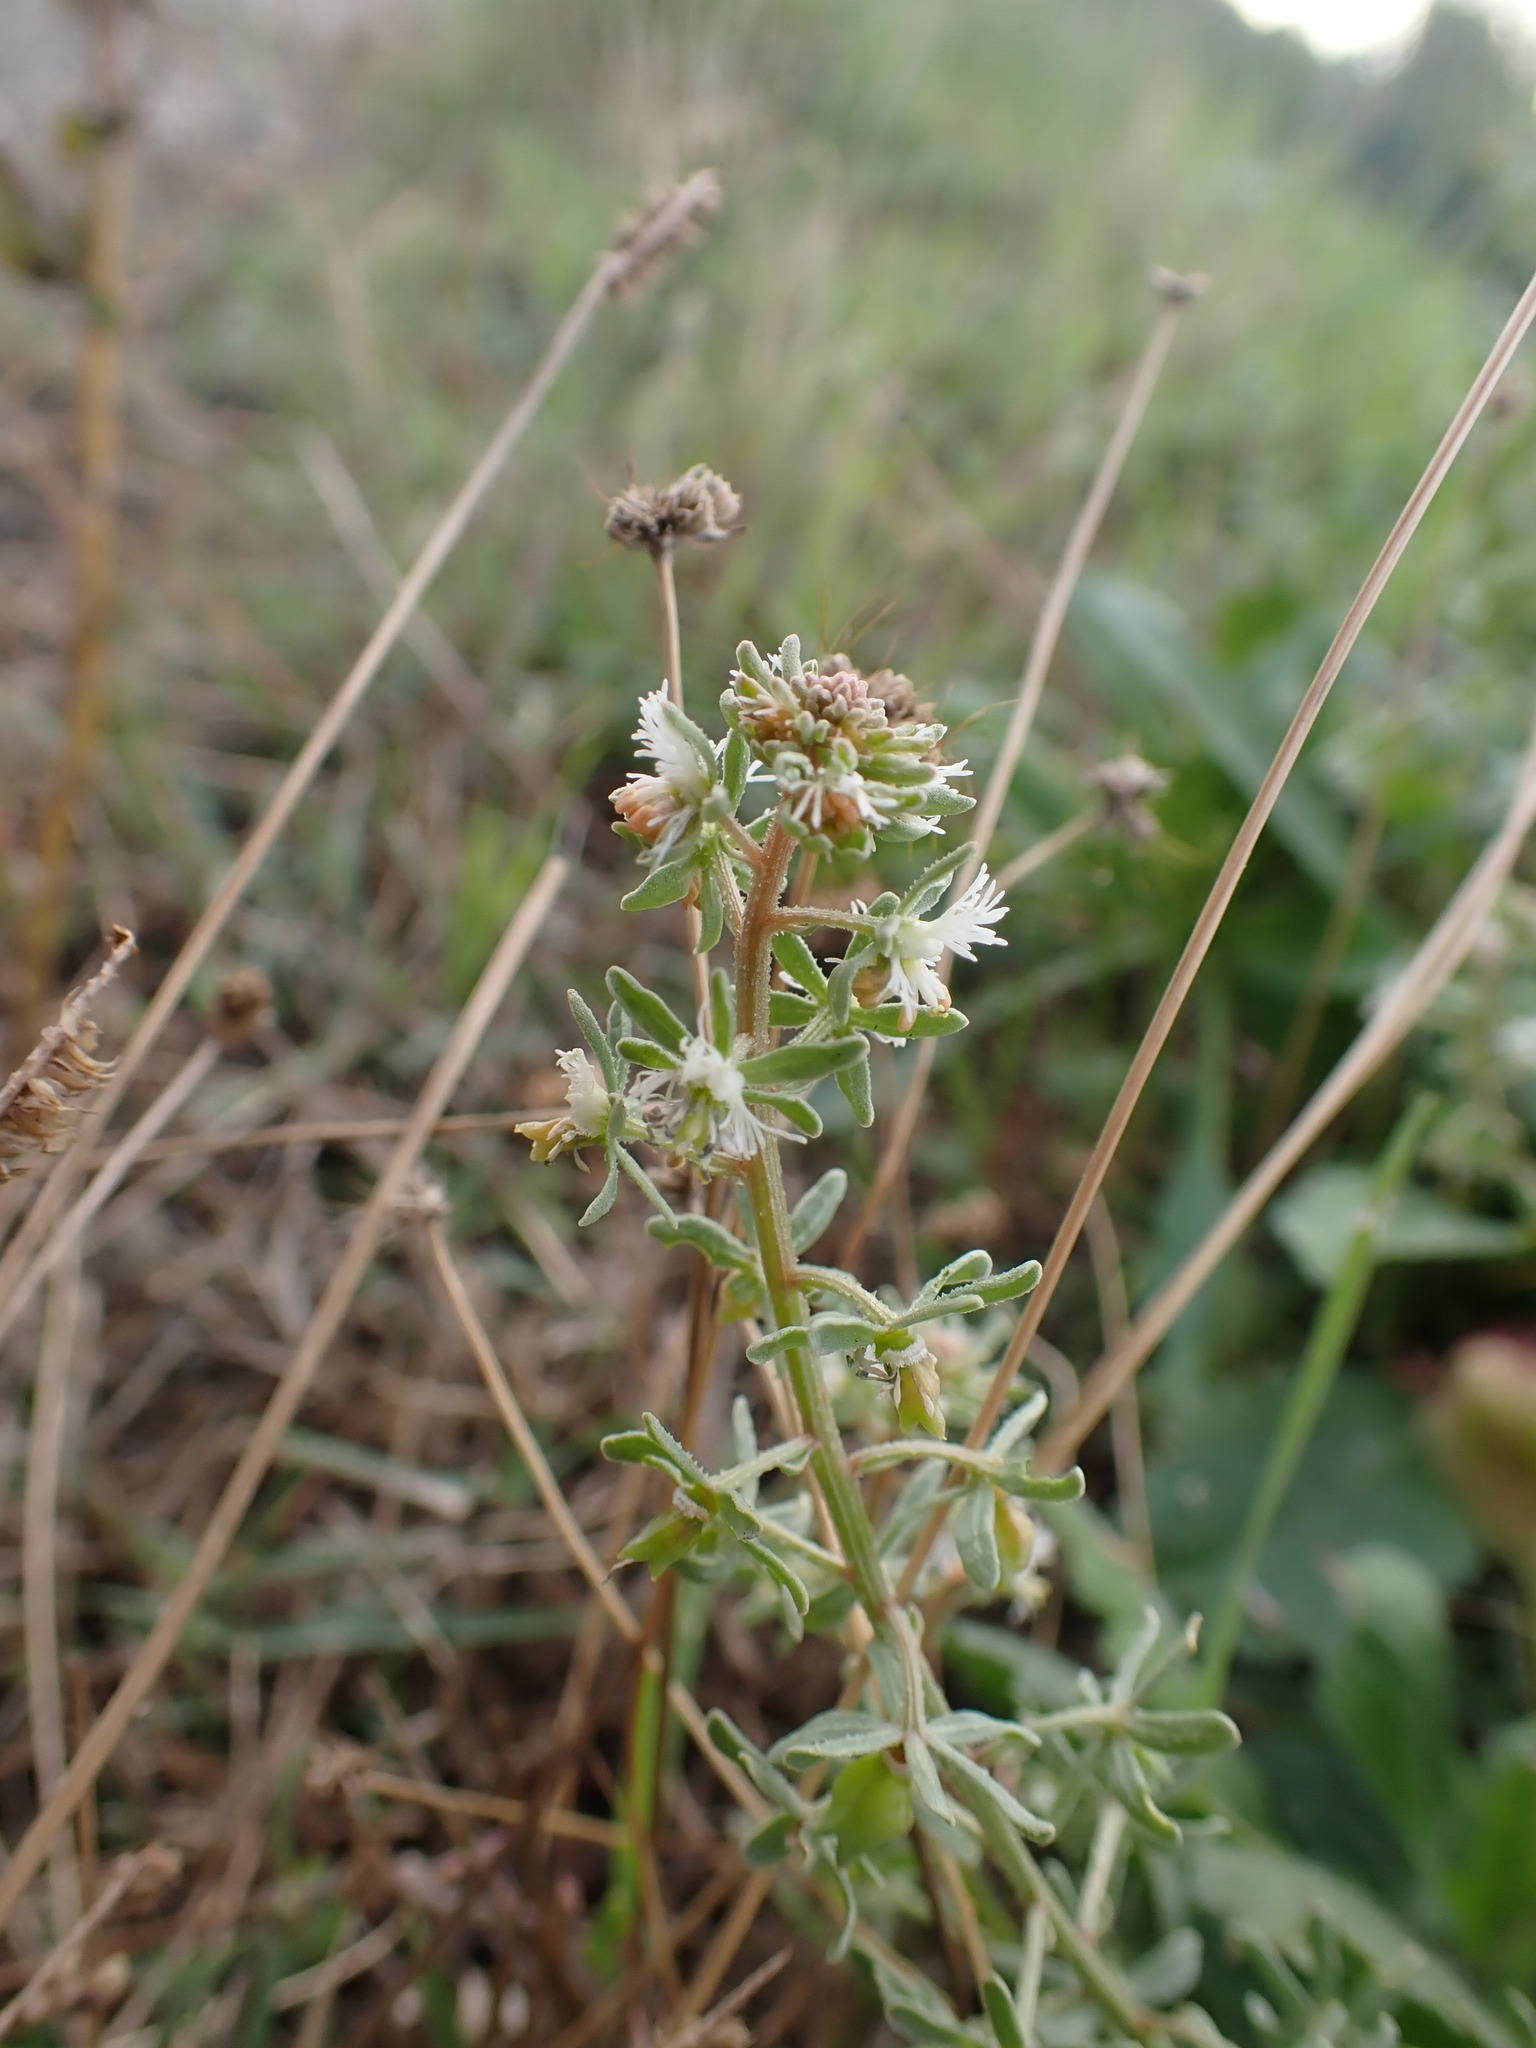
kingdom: Plantae
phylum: Tracheophyta
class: Magnoliopsida
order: Brassicales
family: Resedaceae
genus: Reseda
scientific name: Reseda phyteuma
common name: Corn mignonette
